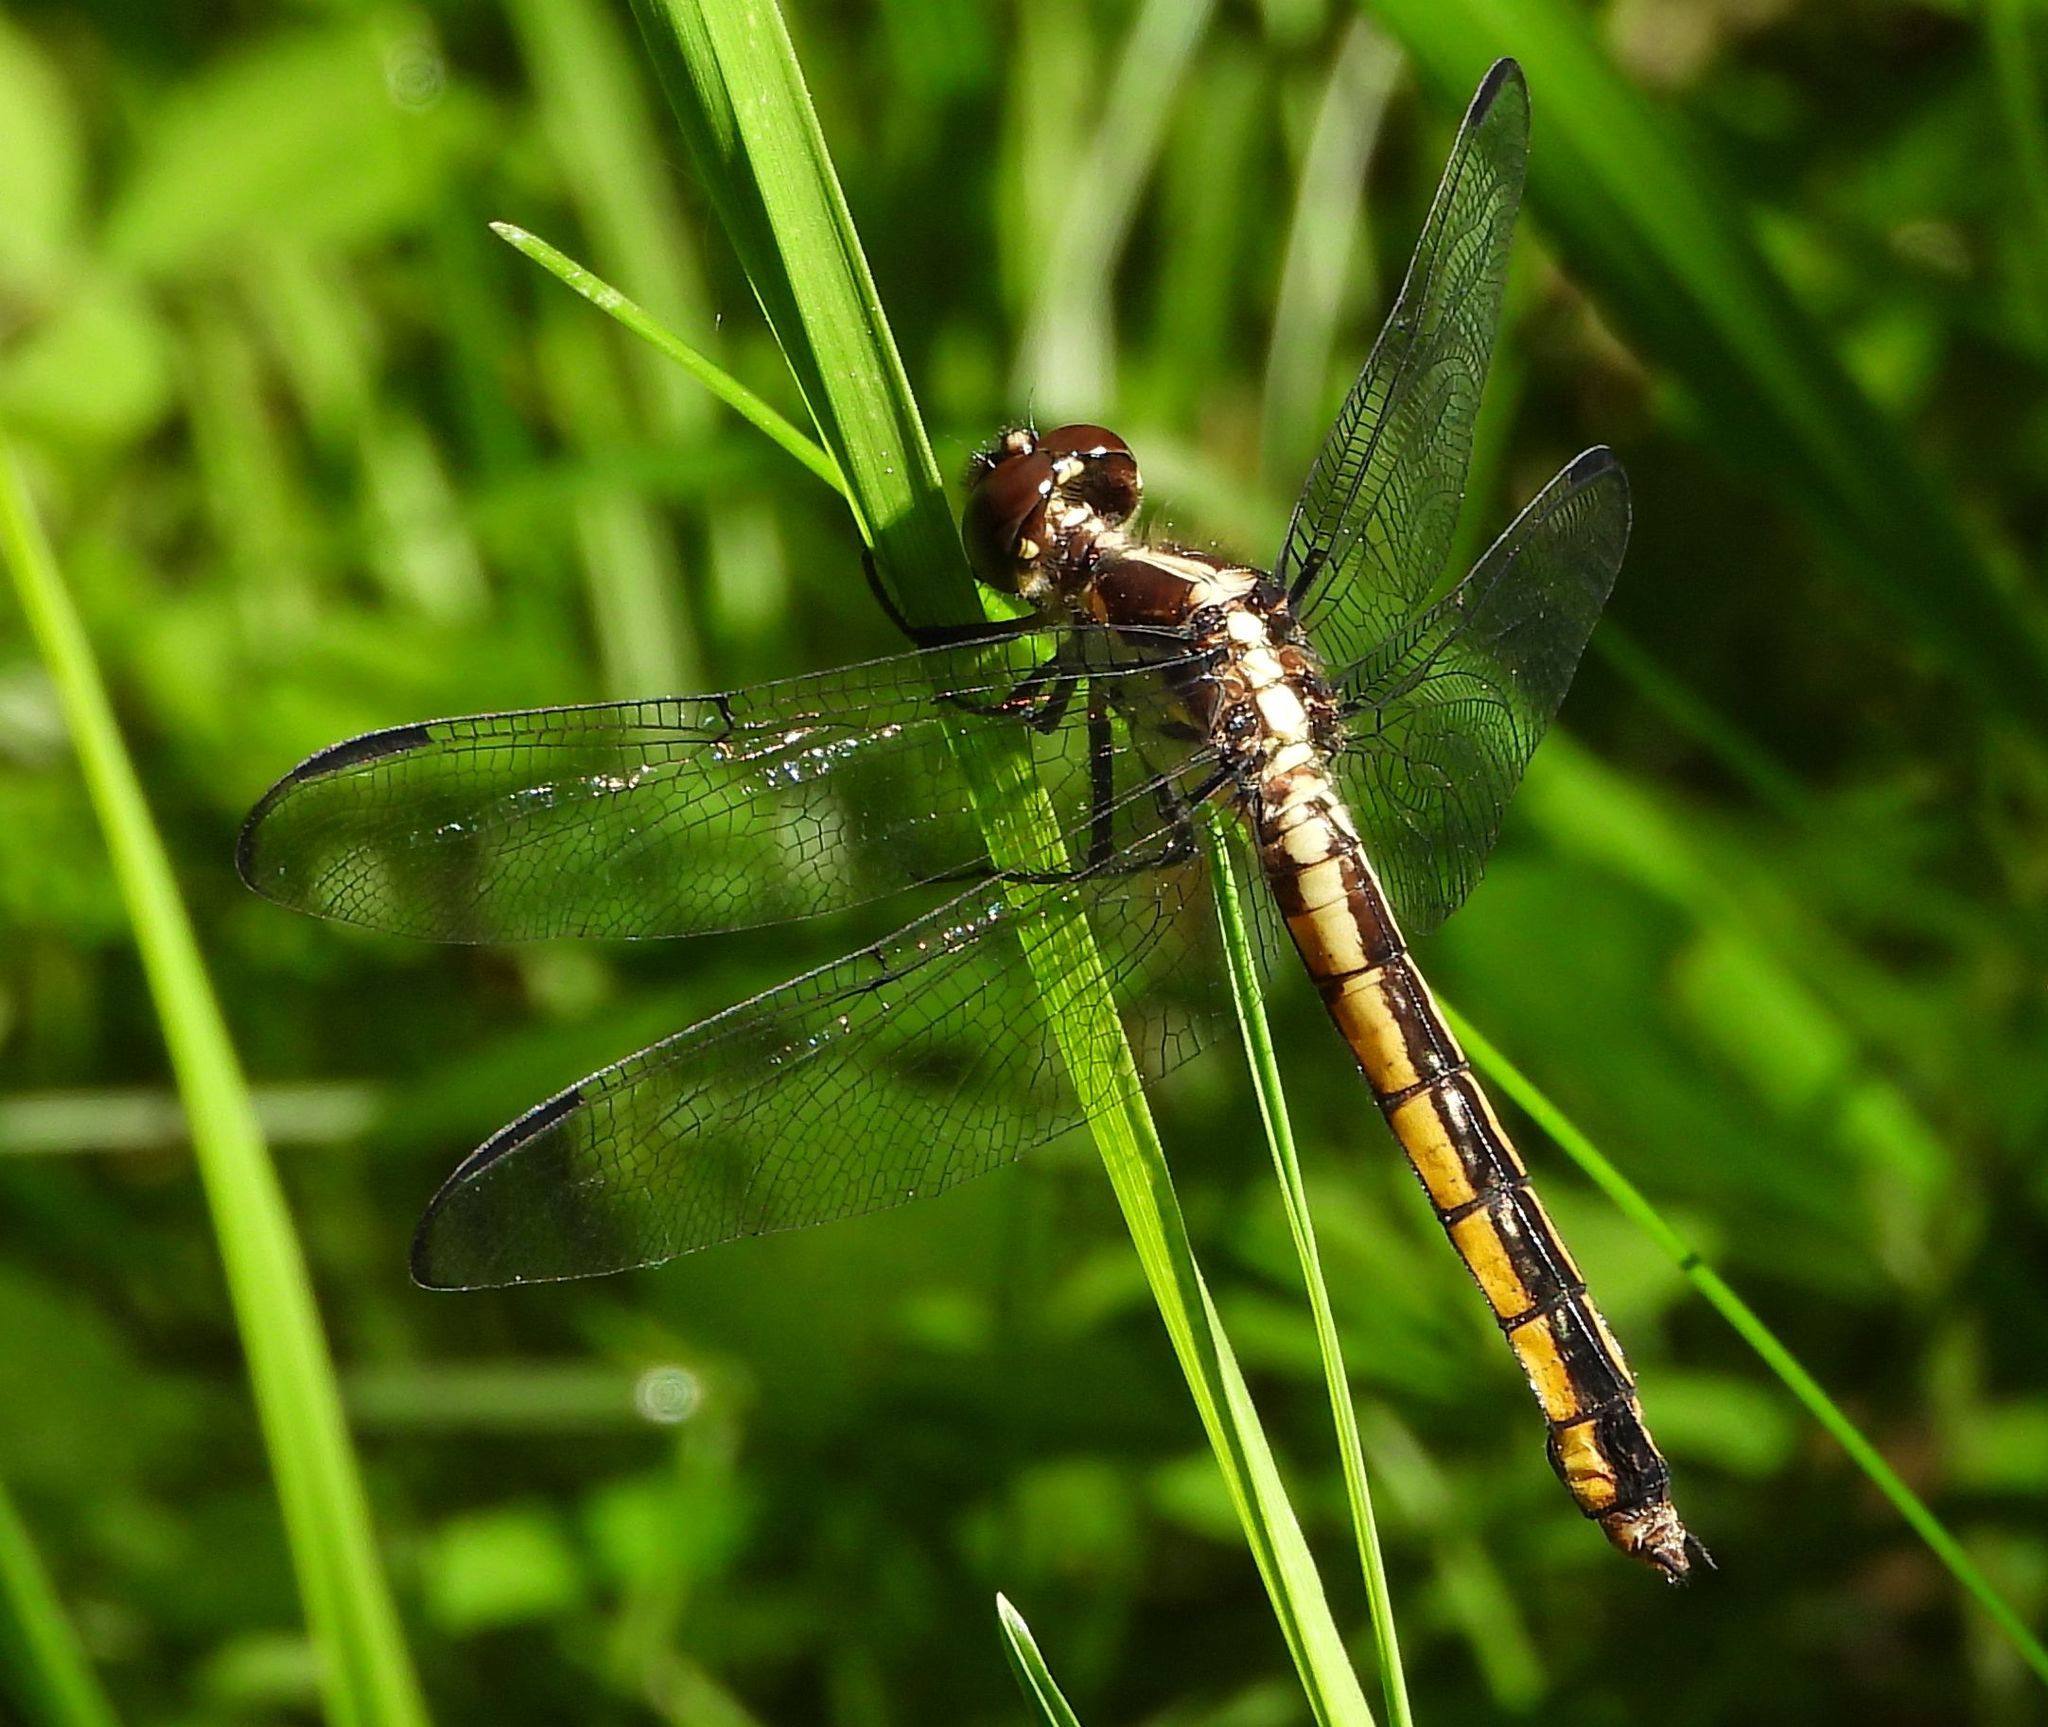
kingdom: Animalia
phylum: Arthropoda
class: Insecta
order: Odonata
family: Libellulidae
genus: Libellula
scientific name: Libellula incesta
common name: Slaty skimmer
